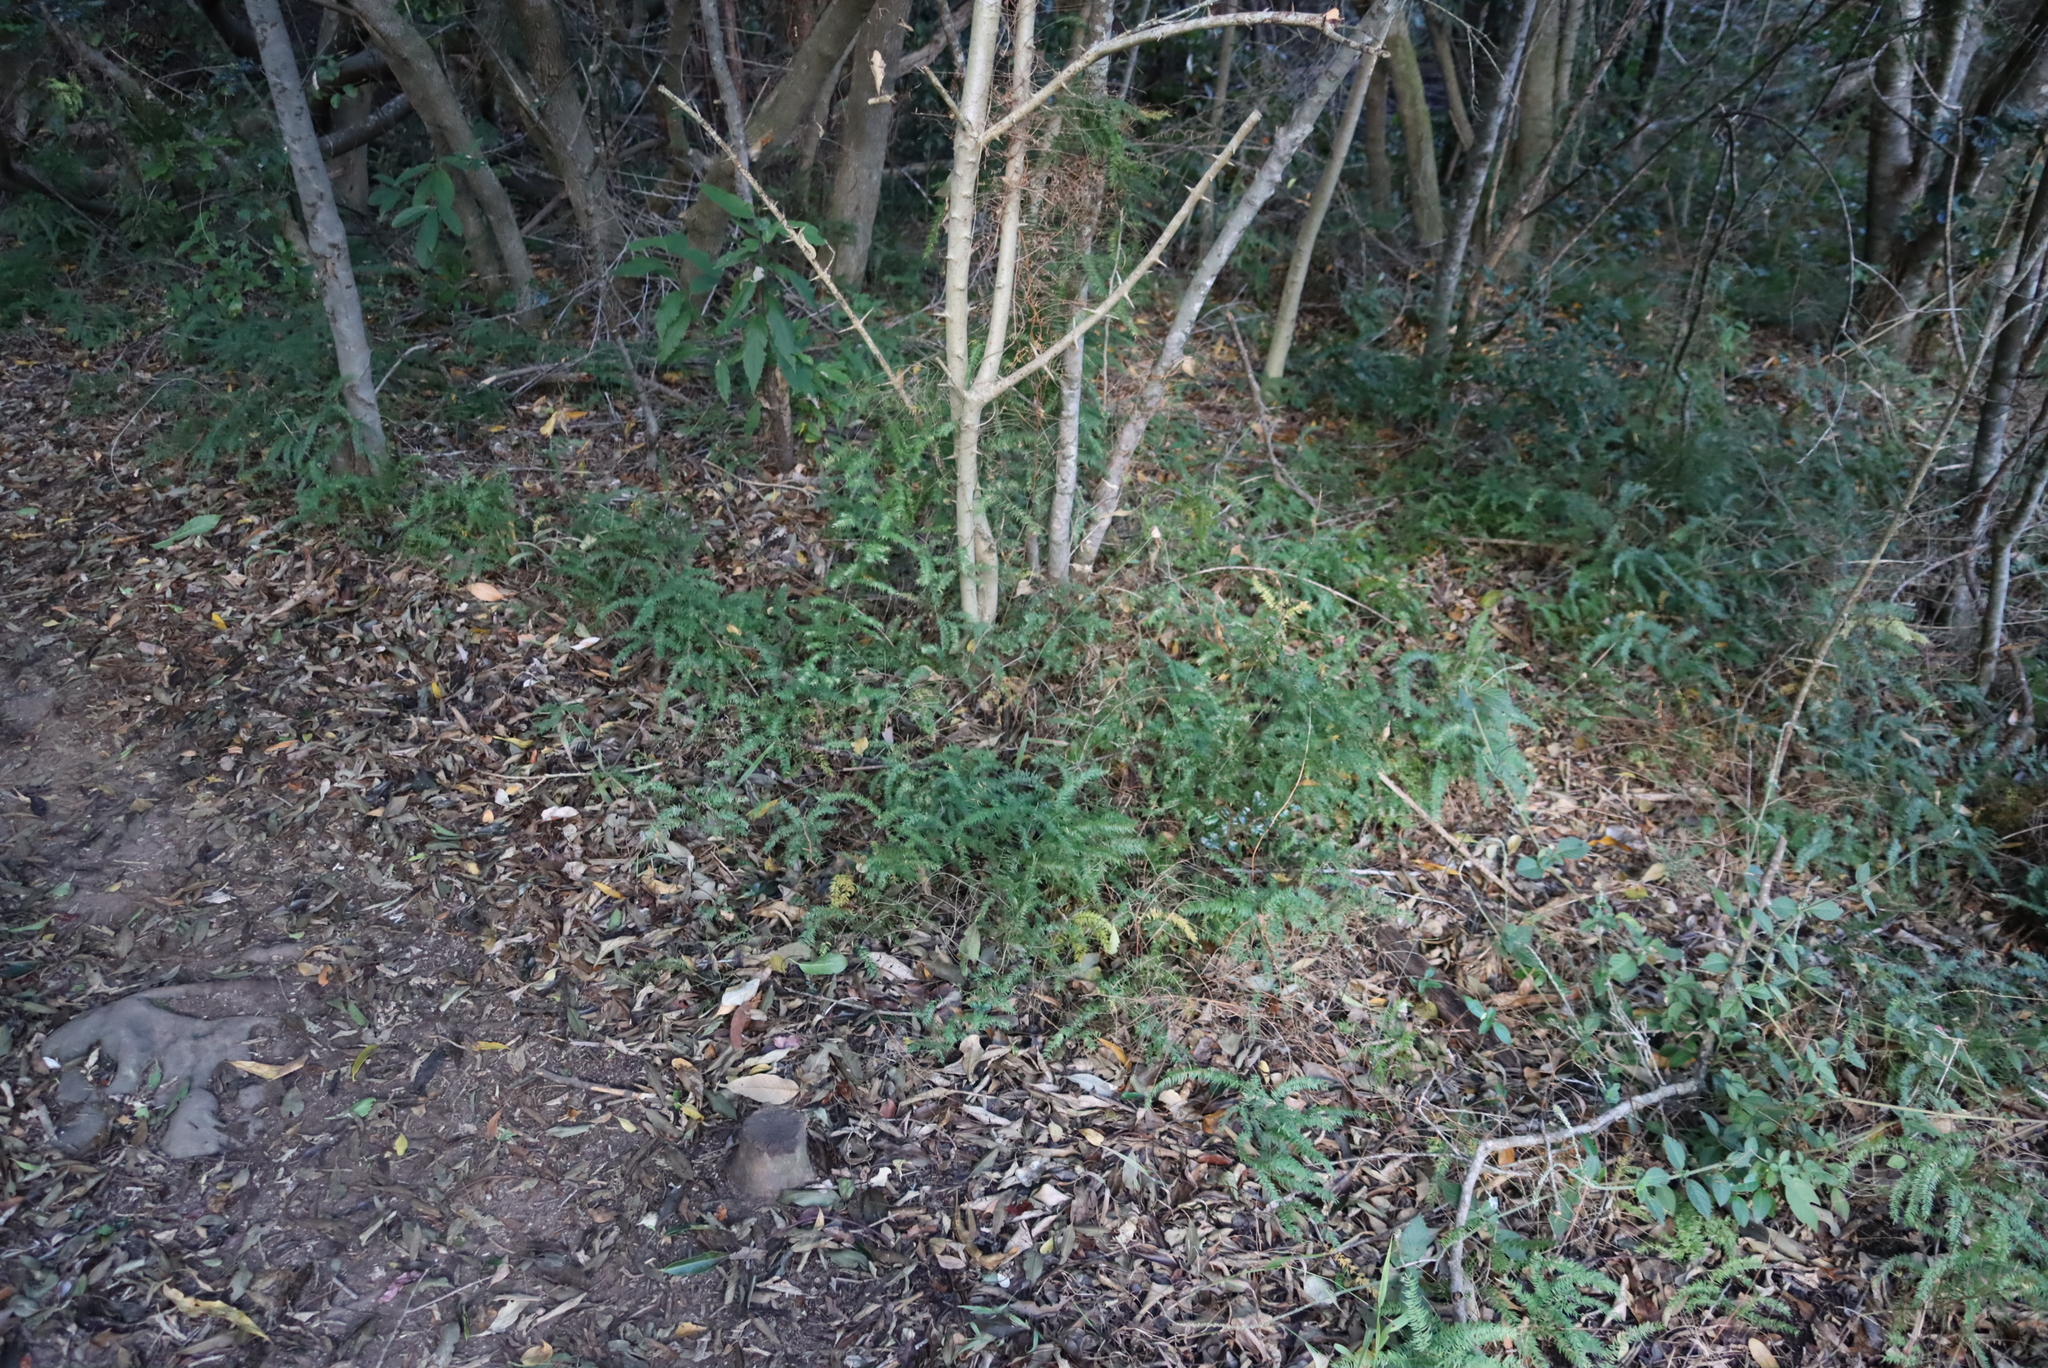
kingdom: Plantae
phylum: Tracheophyta
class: Liliopsida
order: Asparagales
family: Asparagaceae
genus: Asparagus
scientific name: Asparagus scandens
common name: Asparagus-fern
